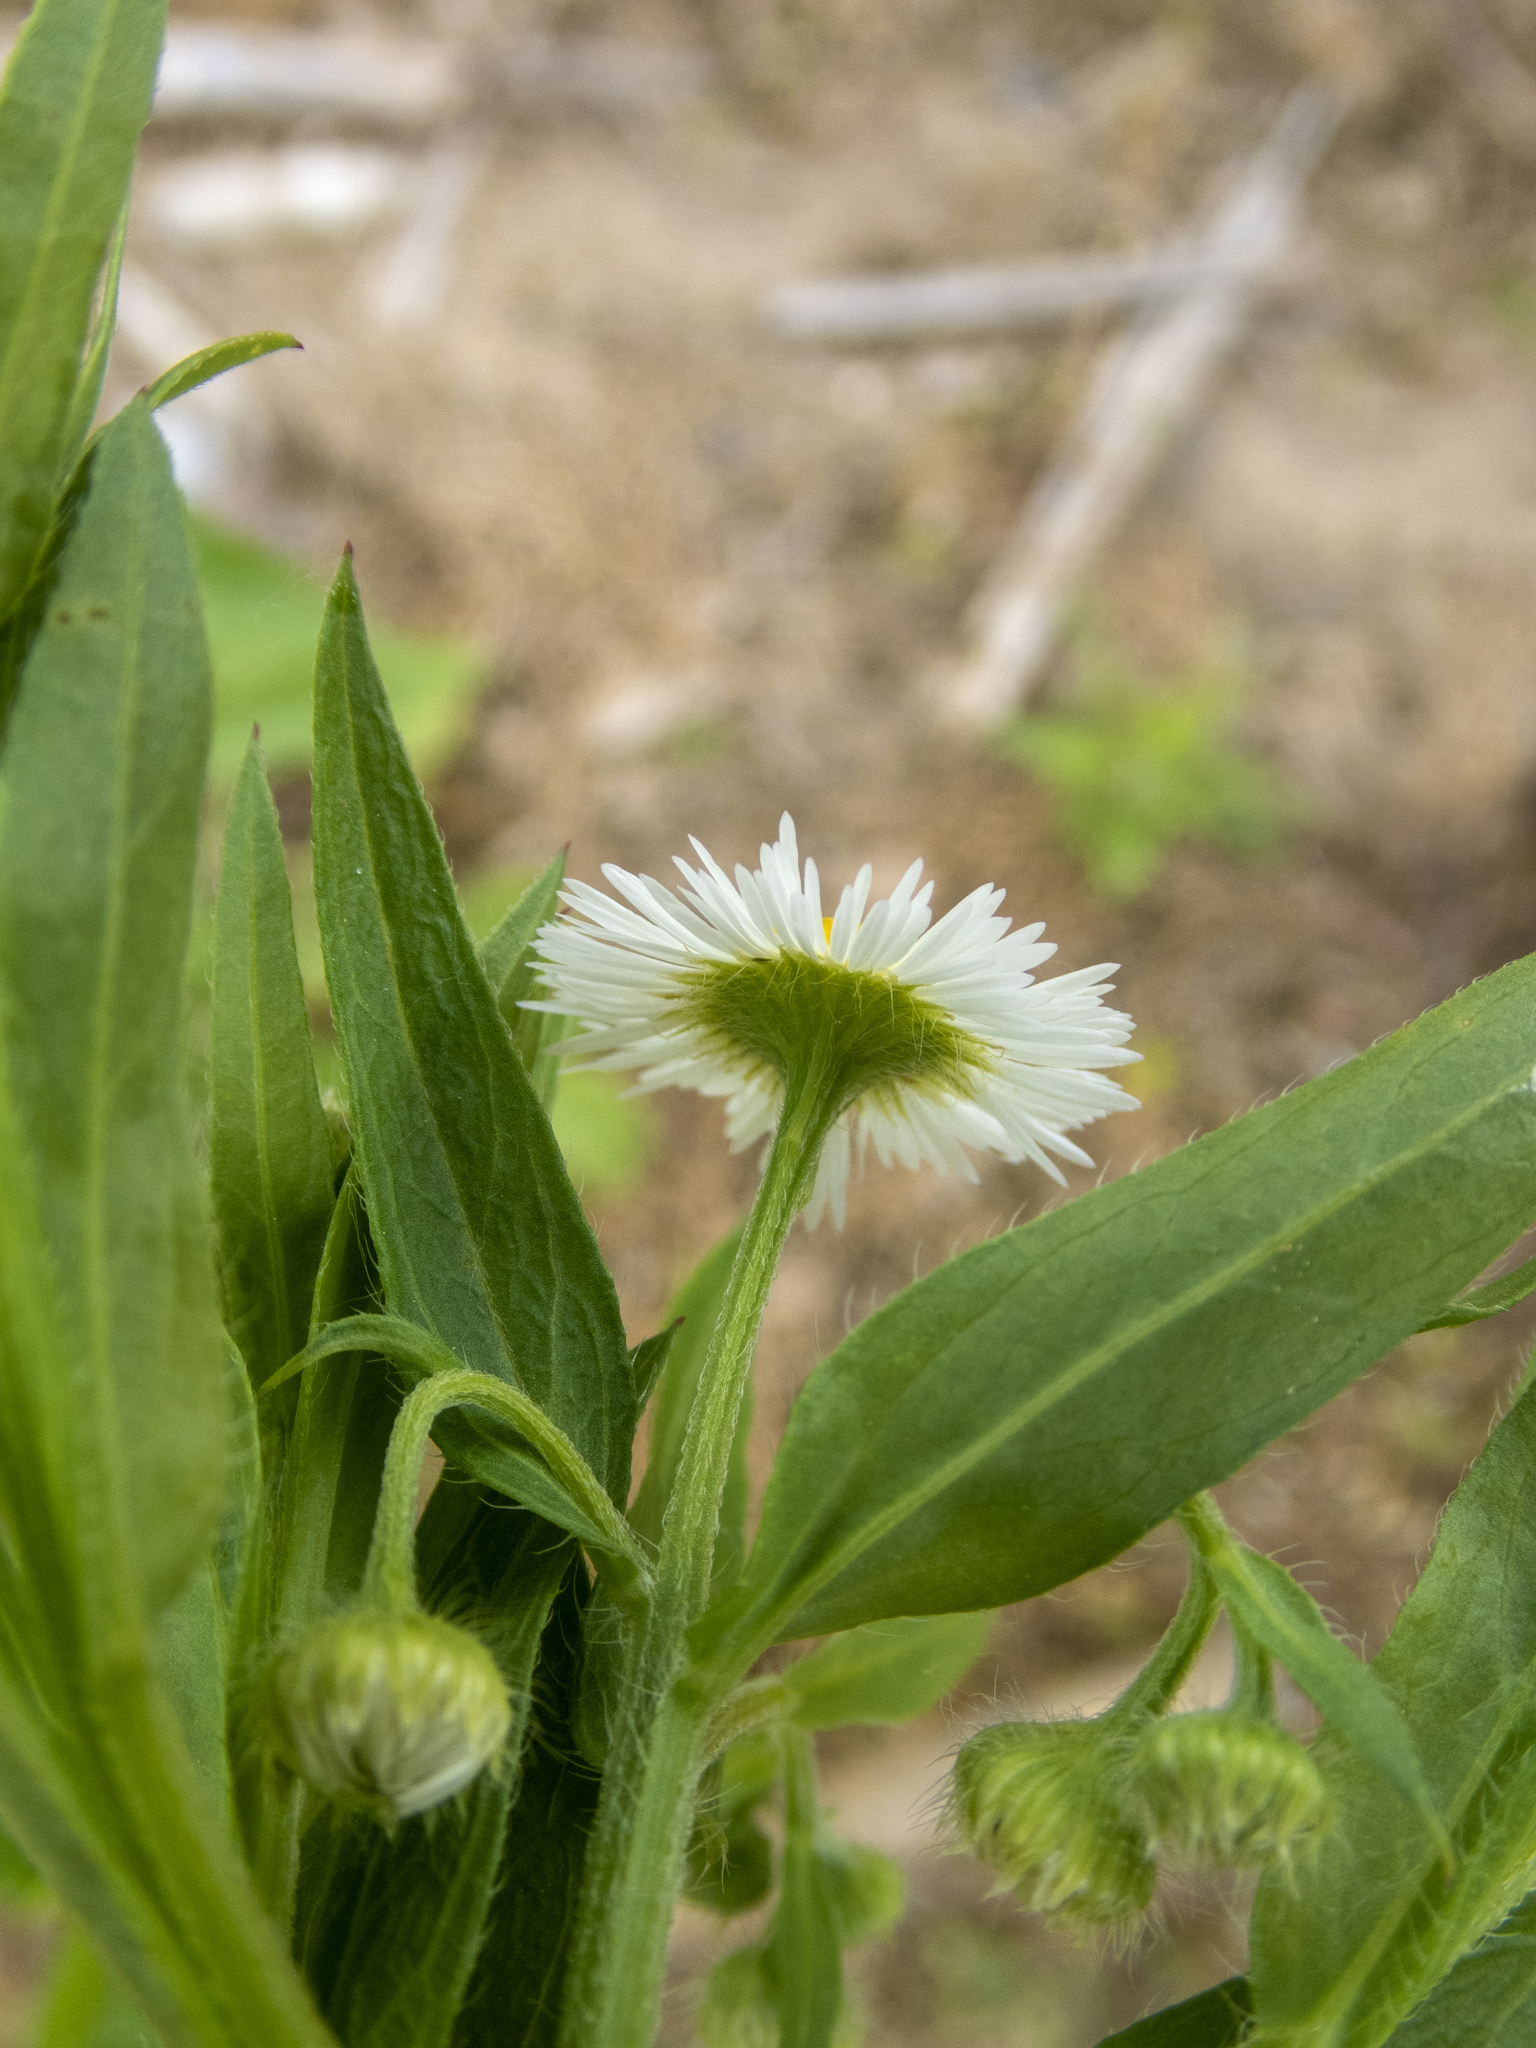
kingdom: Plantae
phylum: Tracheophyta
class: Magnoliopsida
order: Asterales
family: Asteraceae
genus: Erigeron
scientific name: Erigeron annuus
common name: Tall fleabane
